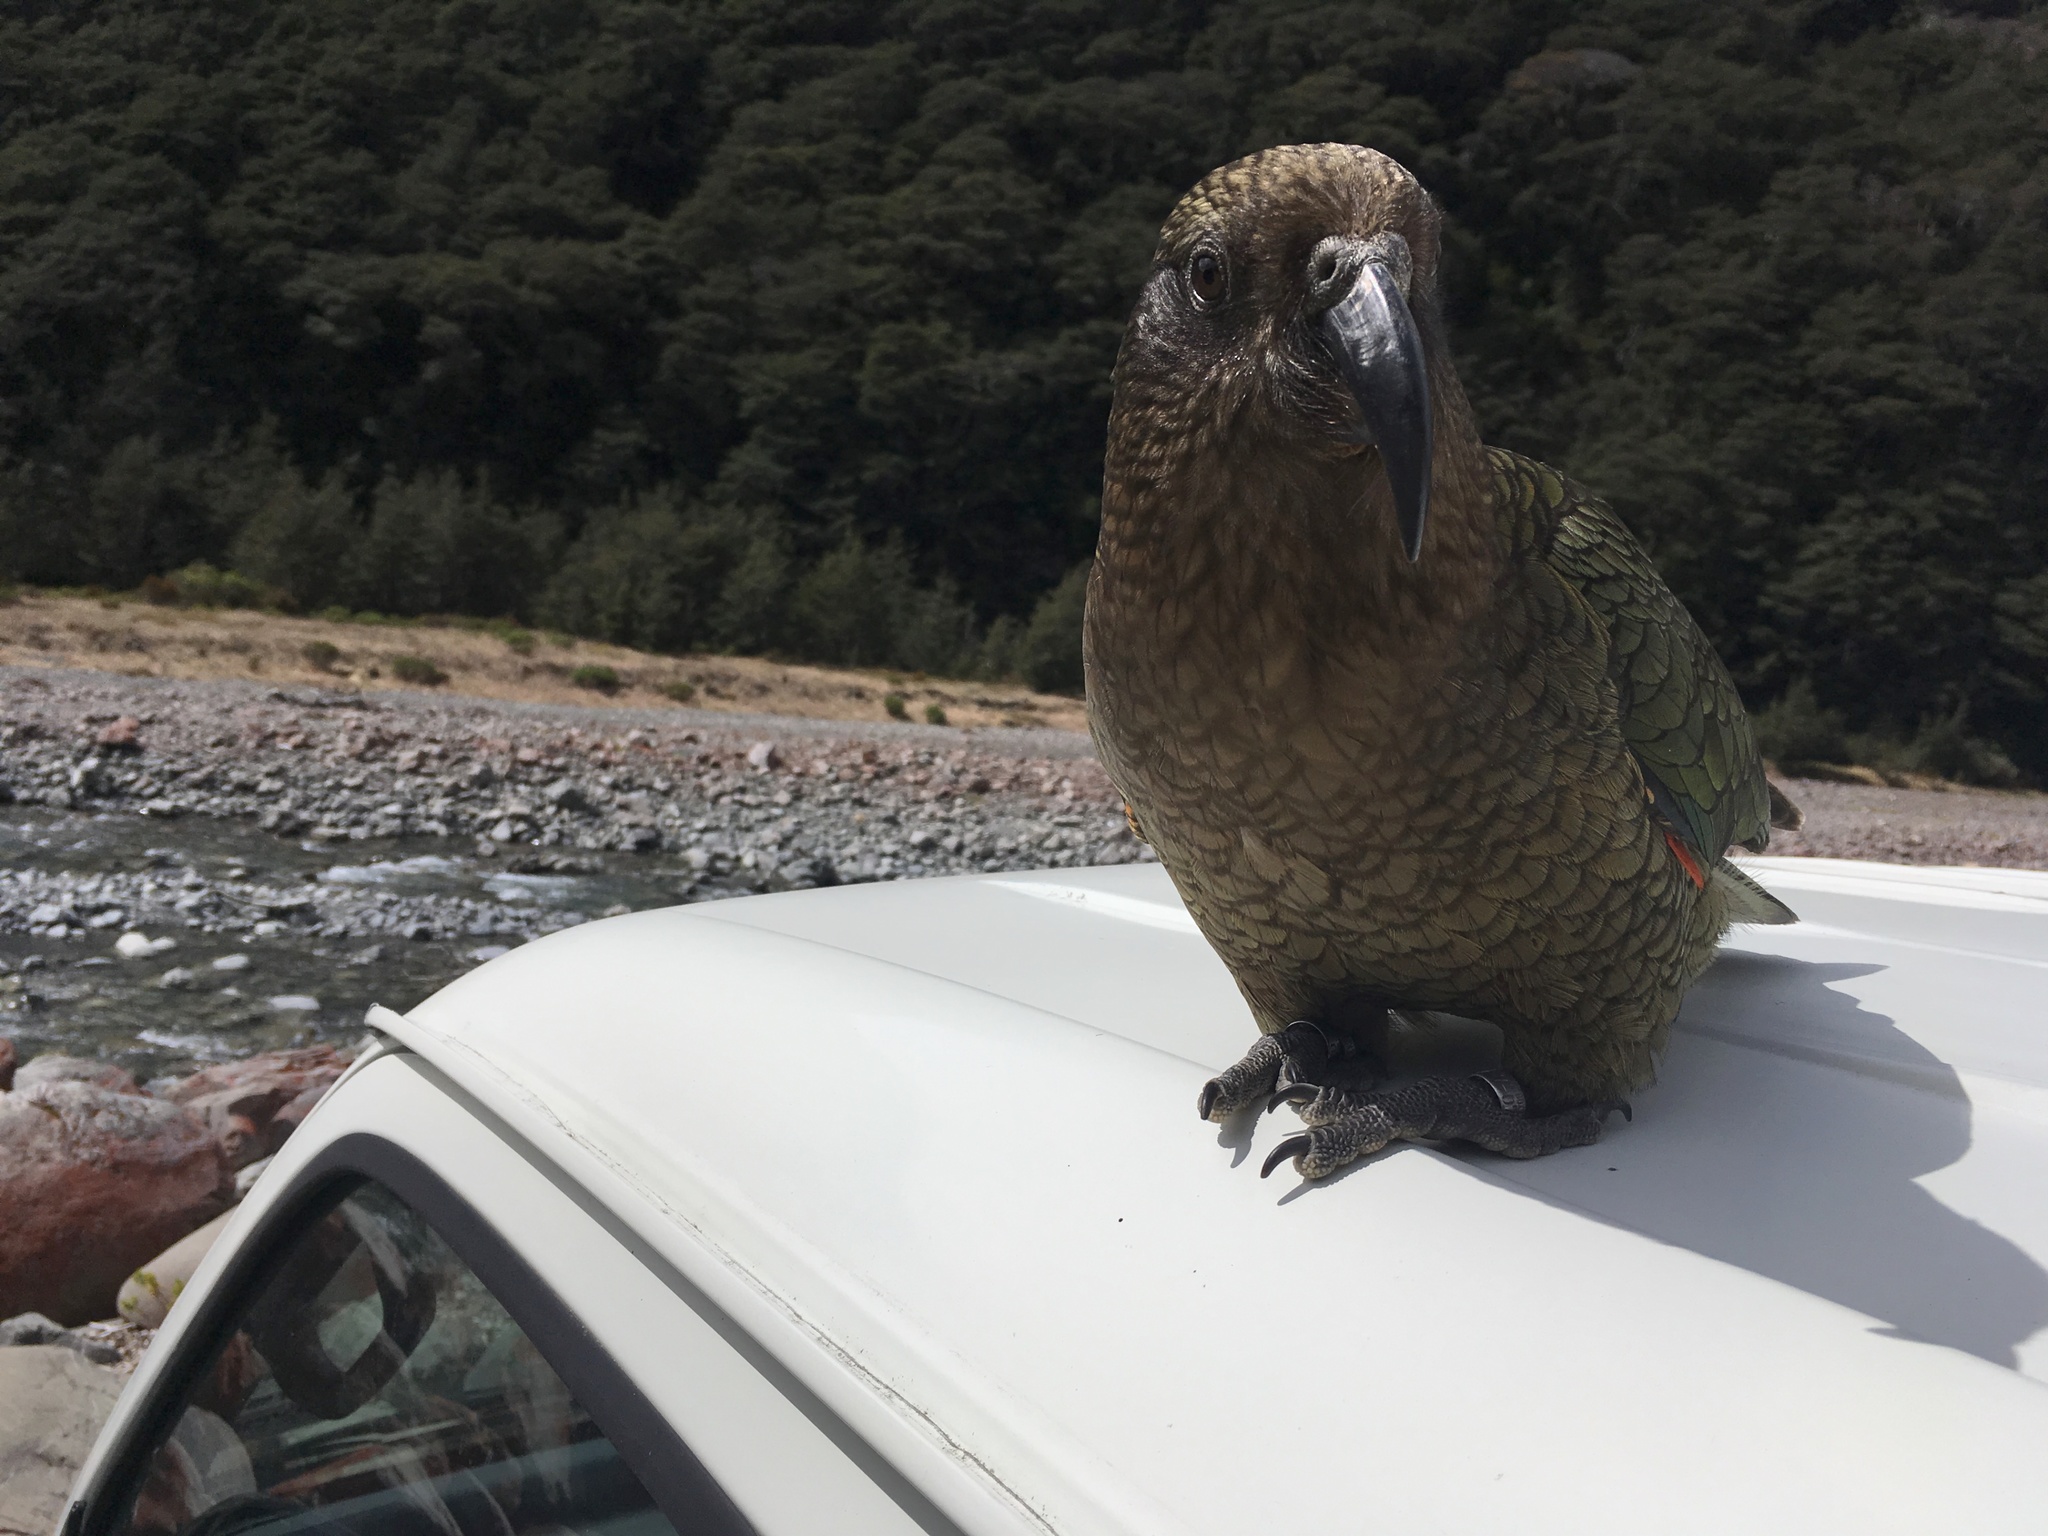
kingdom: Animalia
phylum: Chordata
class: Aves
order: Psittaciformes
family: Psittacidae
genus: Nestor
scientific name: Nestor notabilis
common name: Kea
